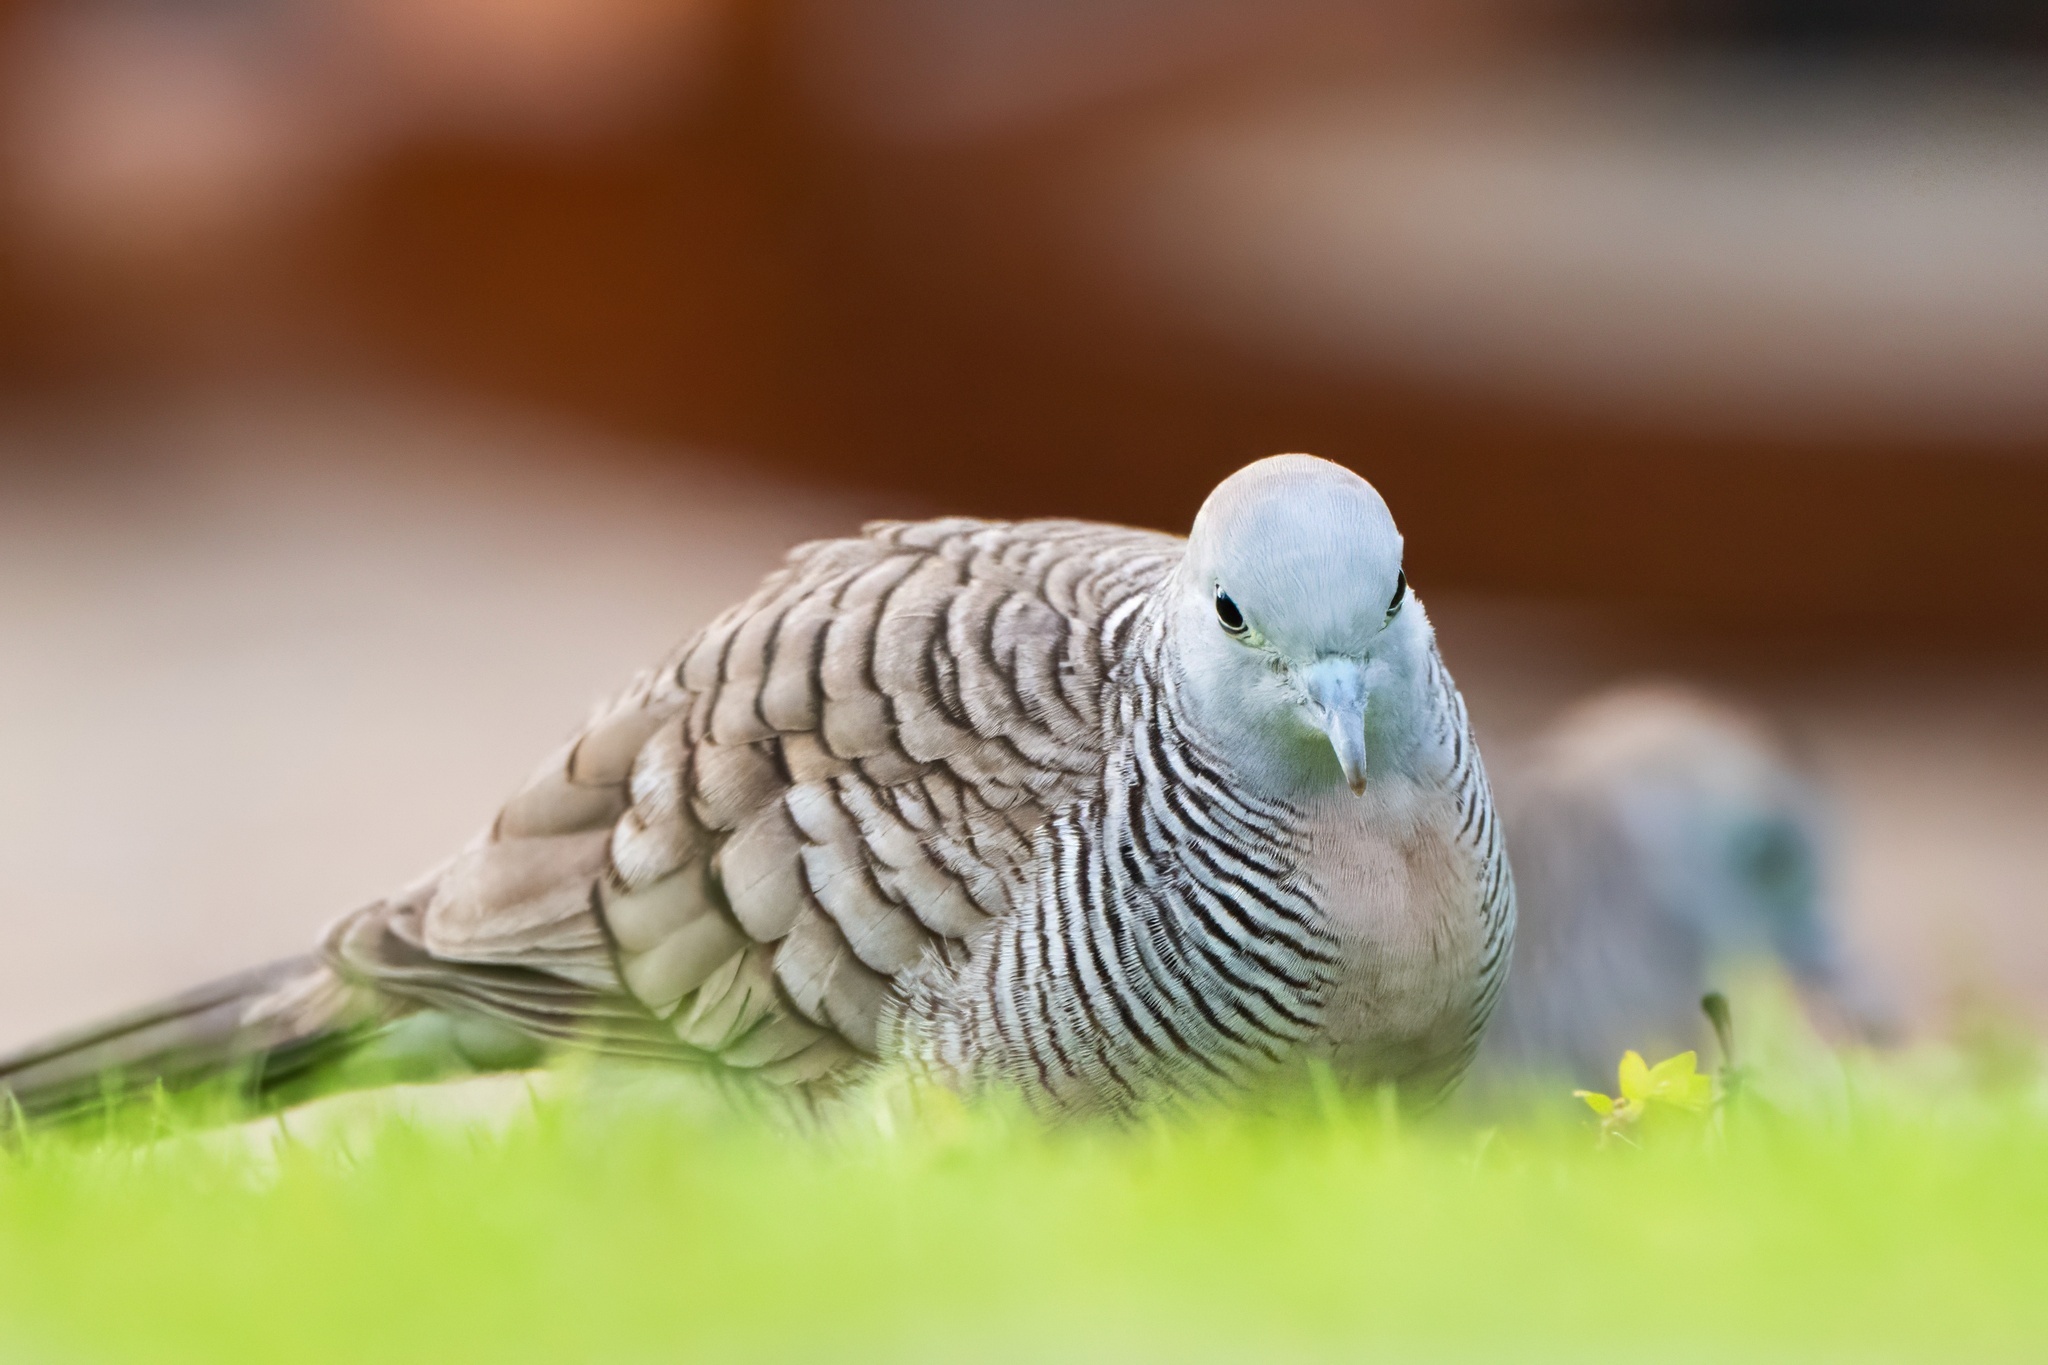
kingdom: Animalia
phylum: Chordata
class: Aves
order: Columbiformes
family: Columbidae
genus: Geopelia
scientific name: Geopelia striata
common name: Zebra dove
